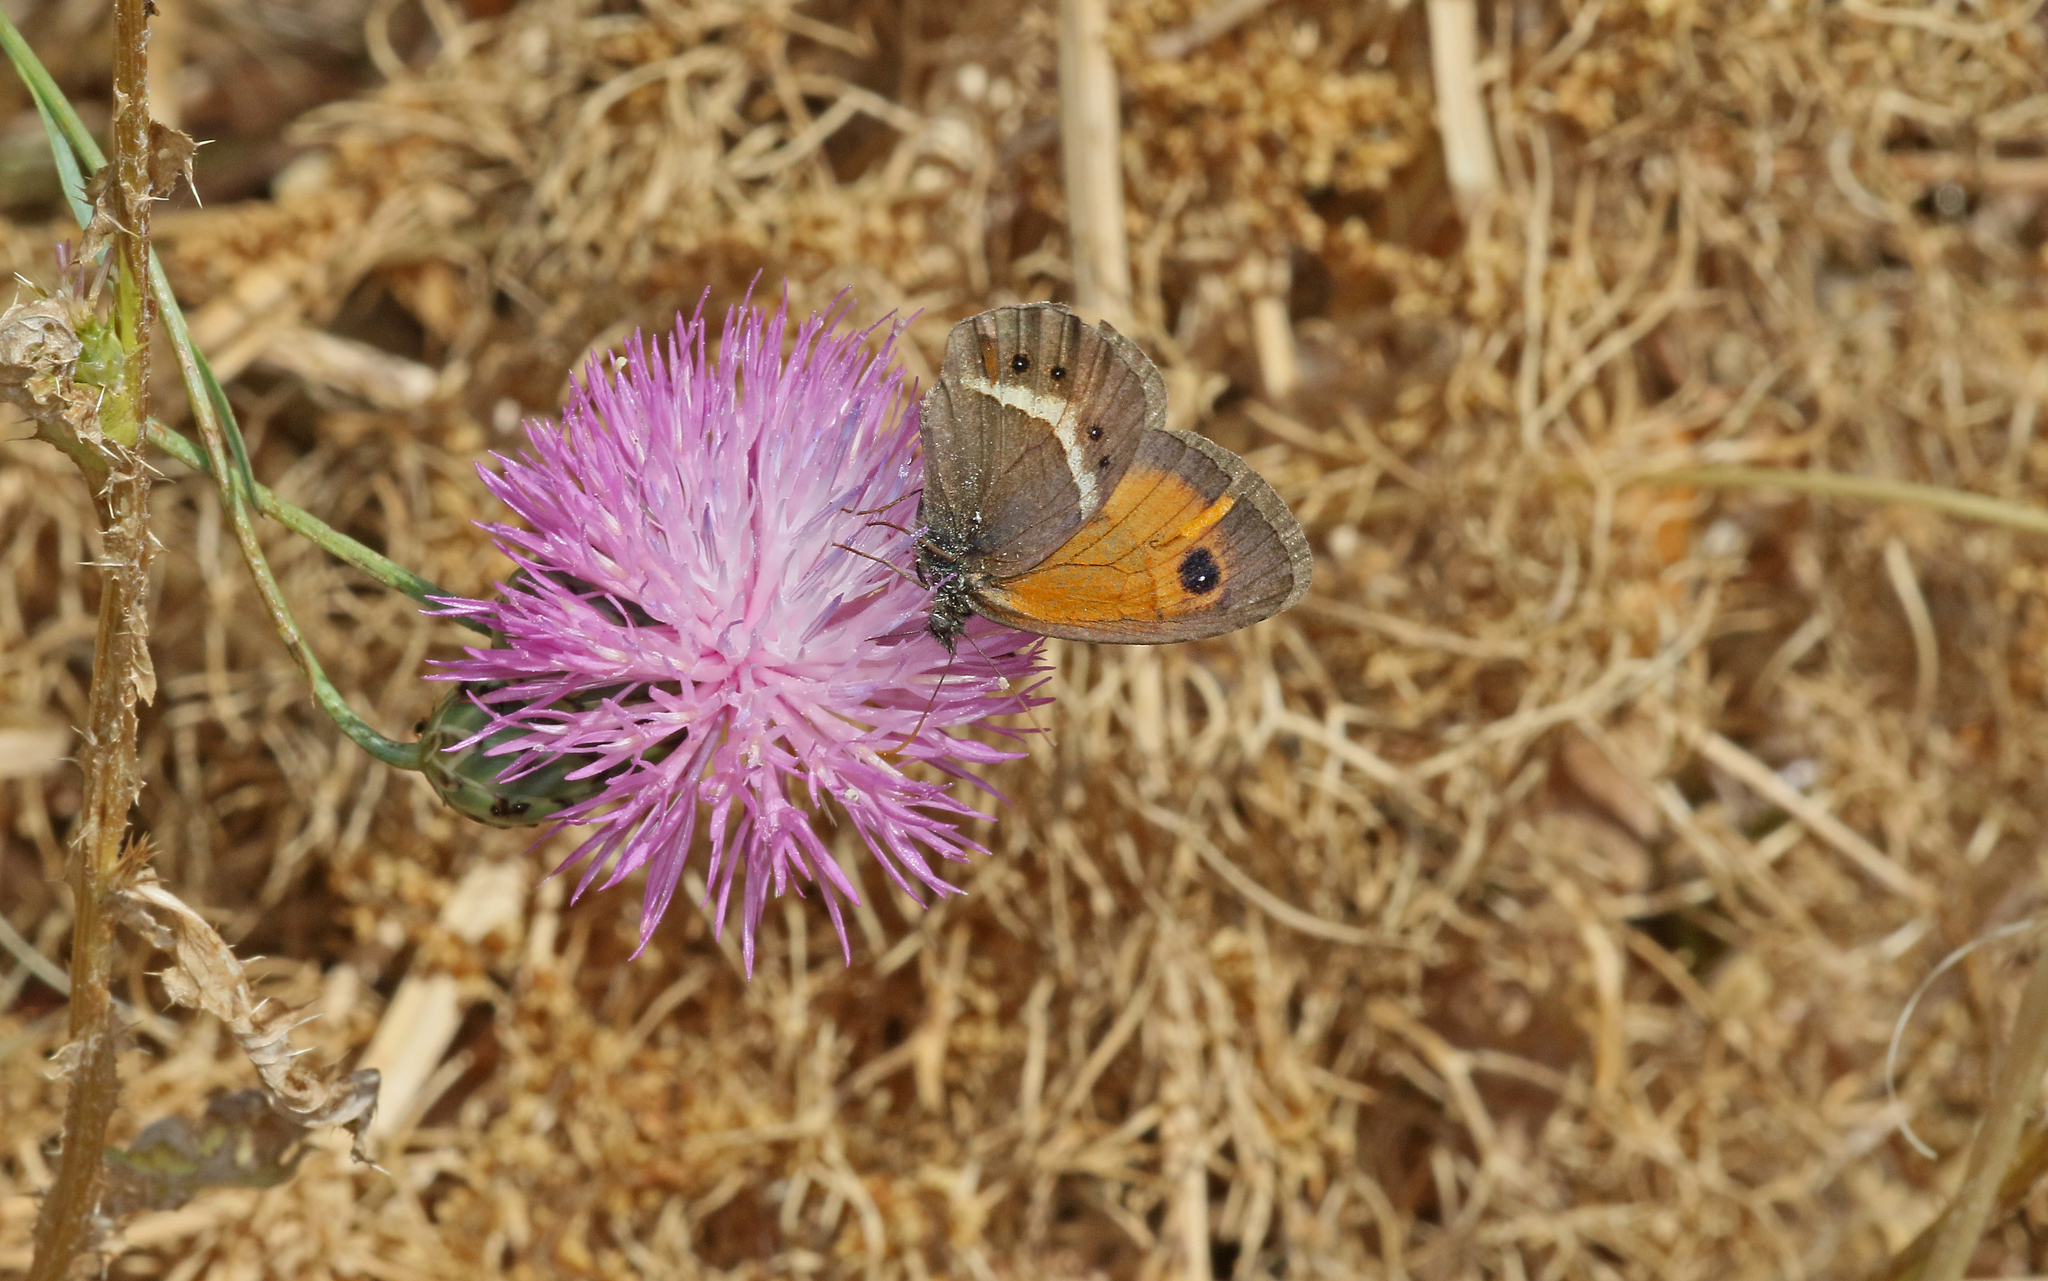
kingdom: Animalia
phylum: Arthropoda
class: Insecta
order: Lepidoptera
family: Nymphalidae
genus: Pyronia
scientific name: Pyronia bathseba
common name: Spanish gatekeeper
